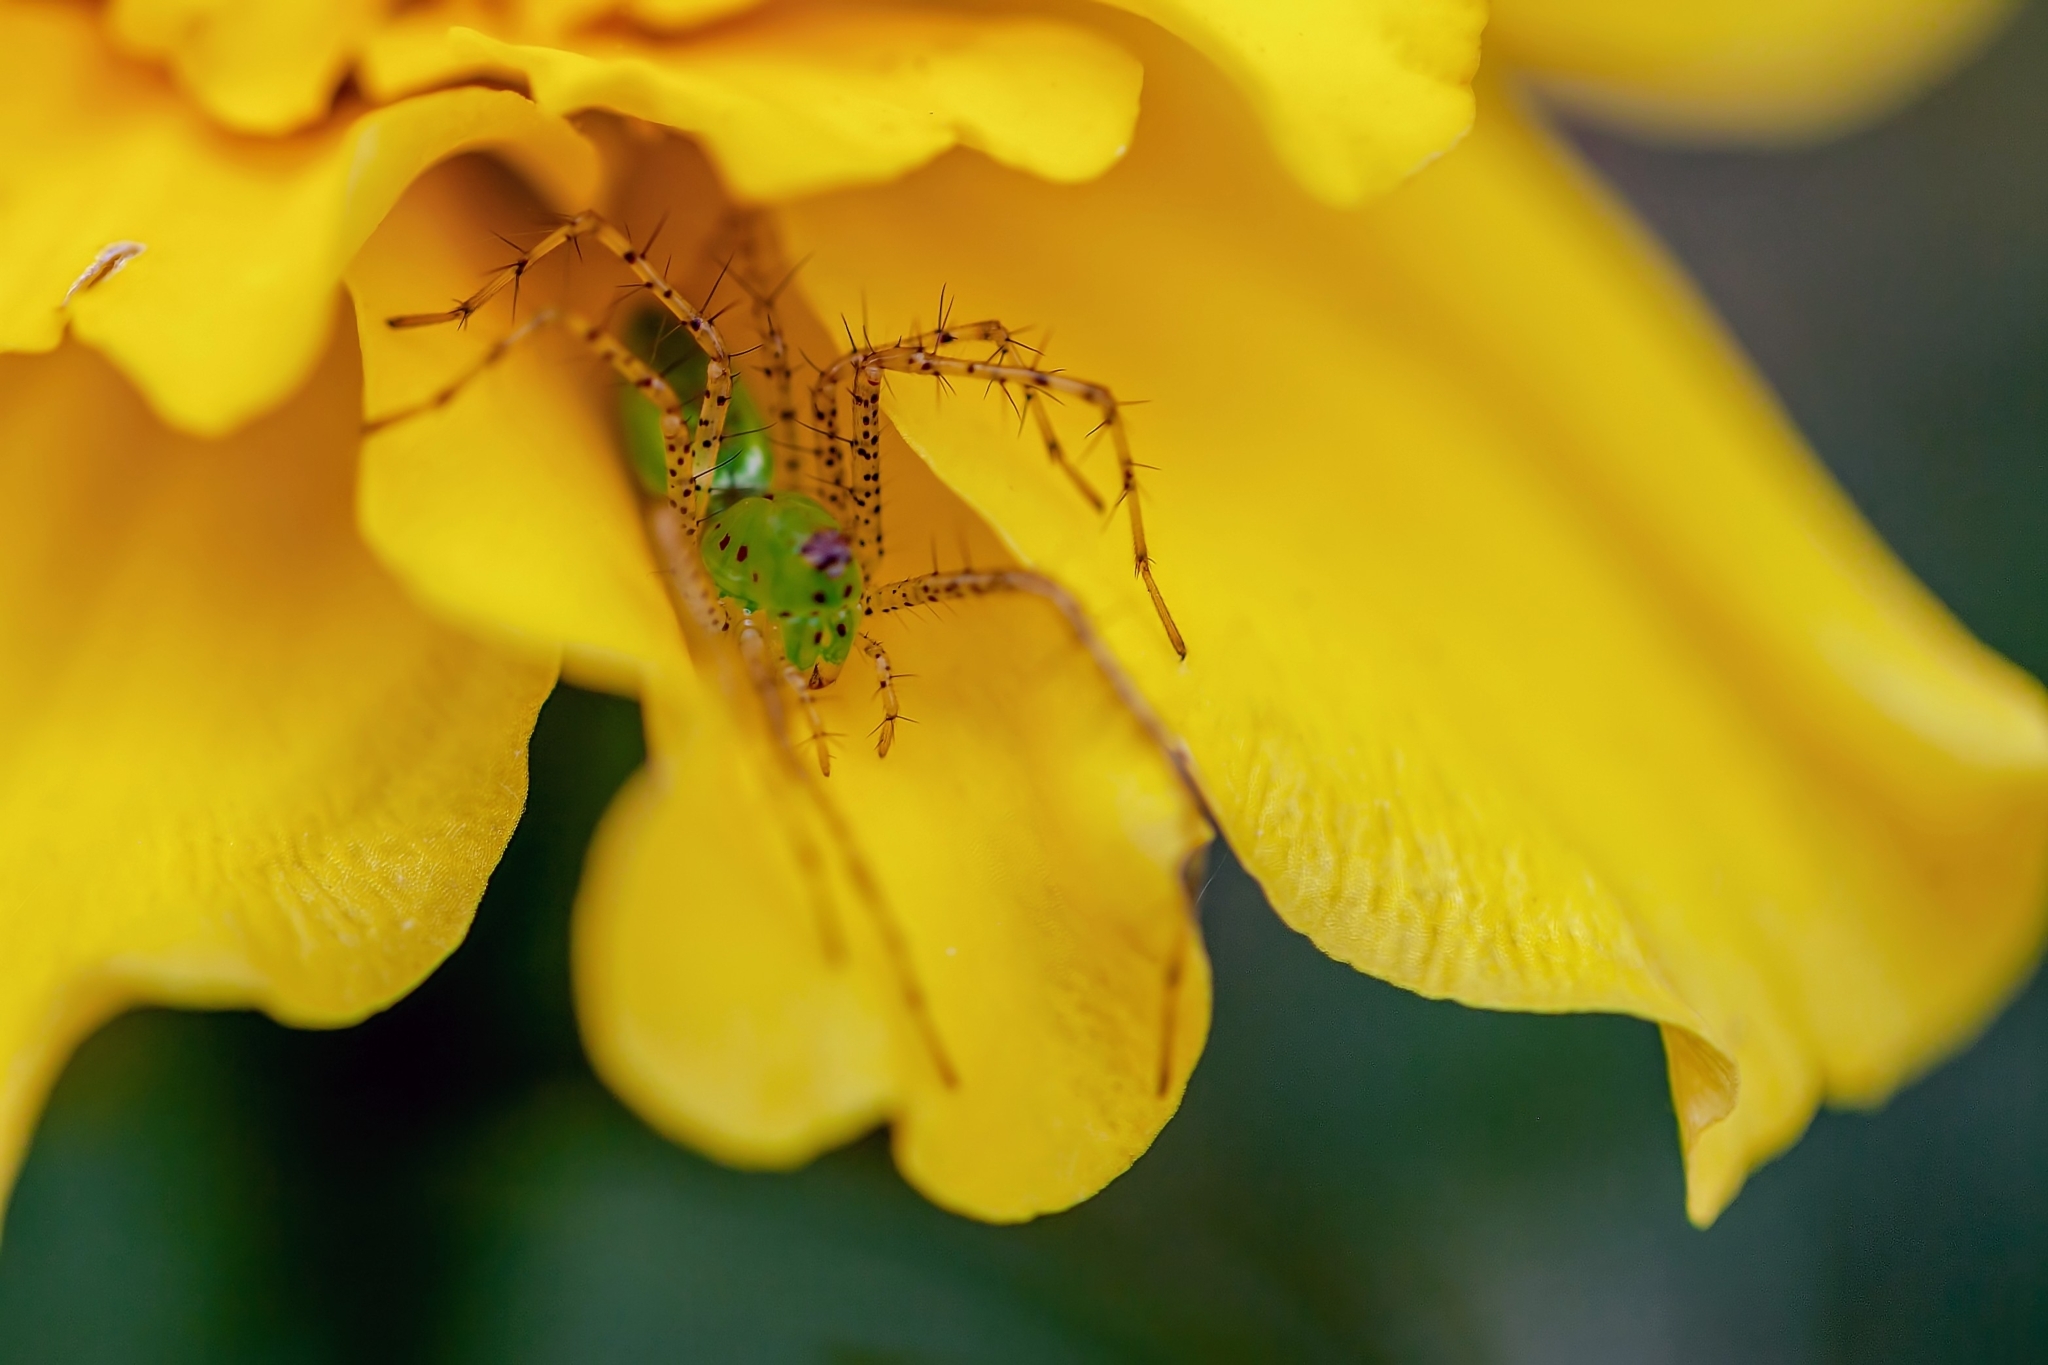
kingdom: Animalia
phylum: Arthropoda
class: Arachnida
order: Araneae
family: Oxyopidae
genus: Peucetia
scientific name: Peucetia viridans
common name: Lynx spiders
